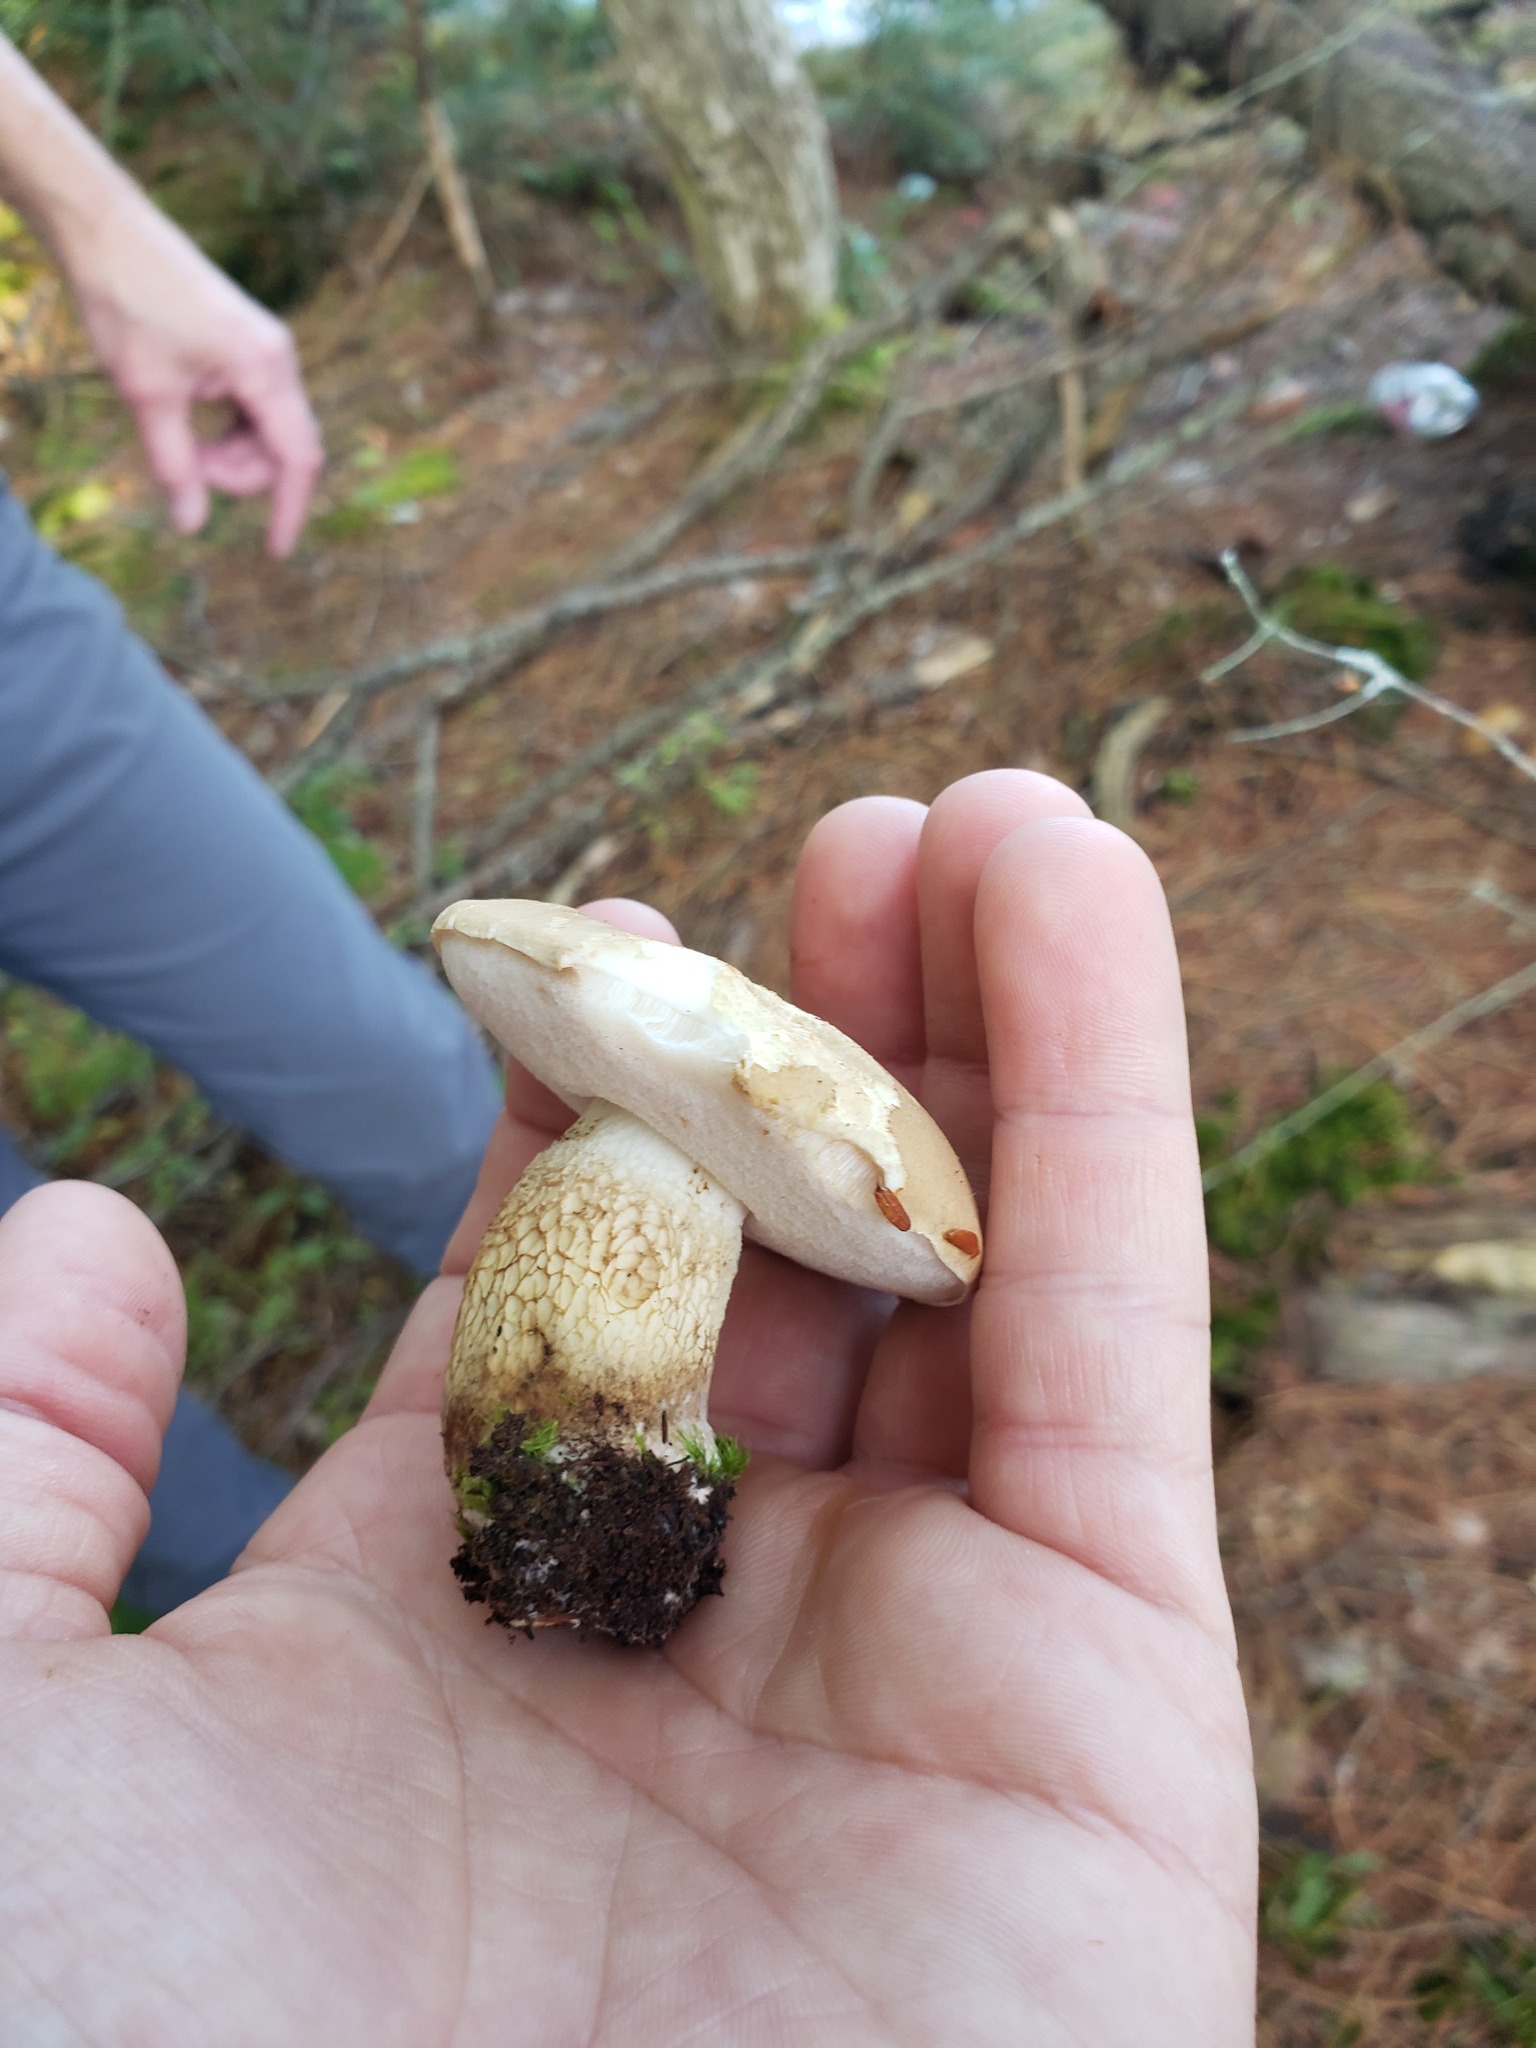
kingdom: Fungi
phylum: Basidiomycota
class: Agaricomycetes
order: Boletales
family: Boletaceae
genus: Tylopilus
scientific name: Tylopilus felleus
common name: Bitter bolete
